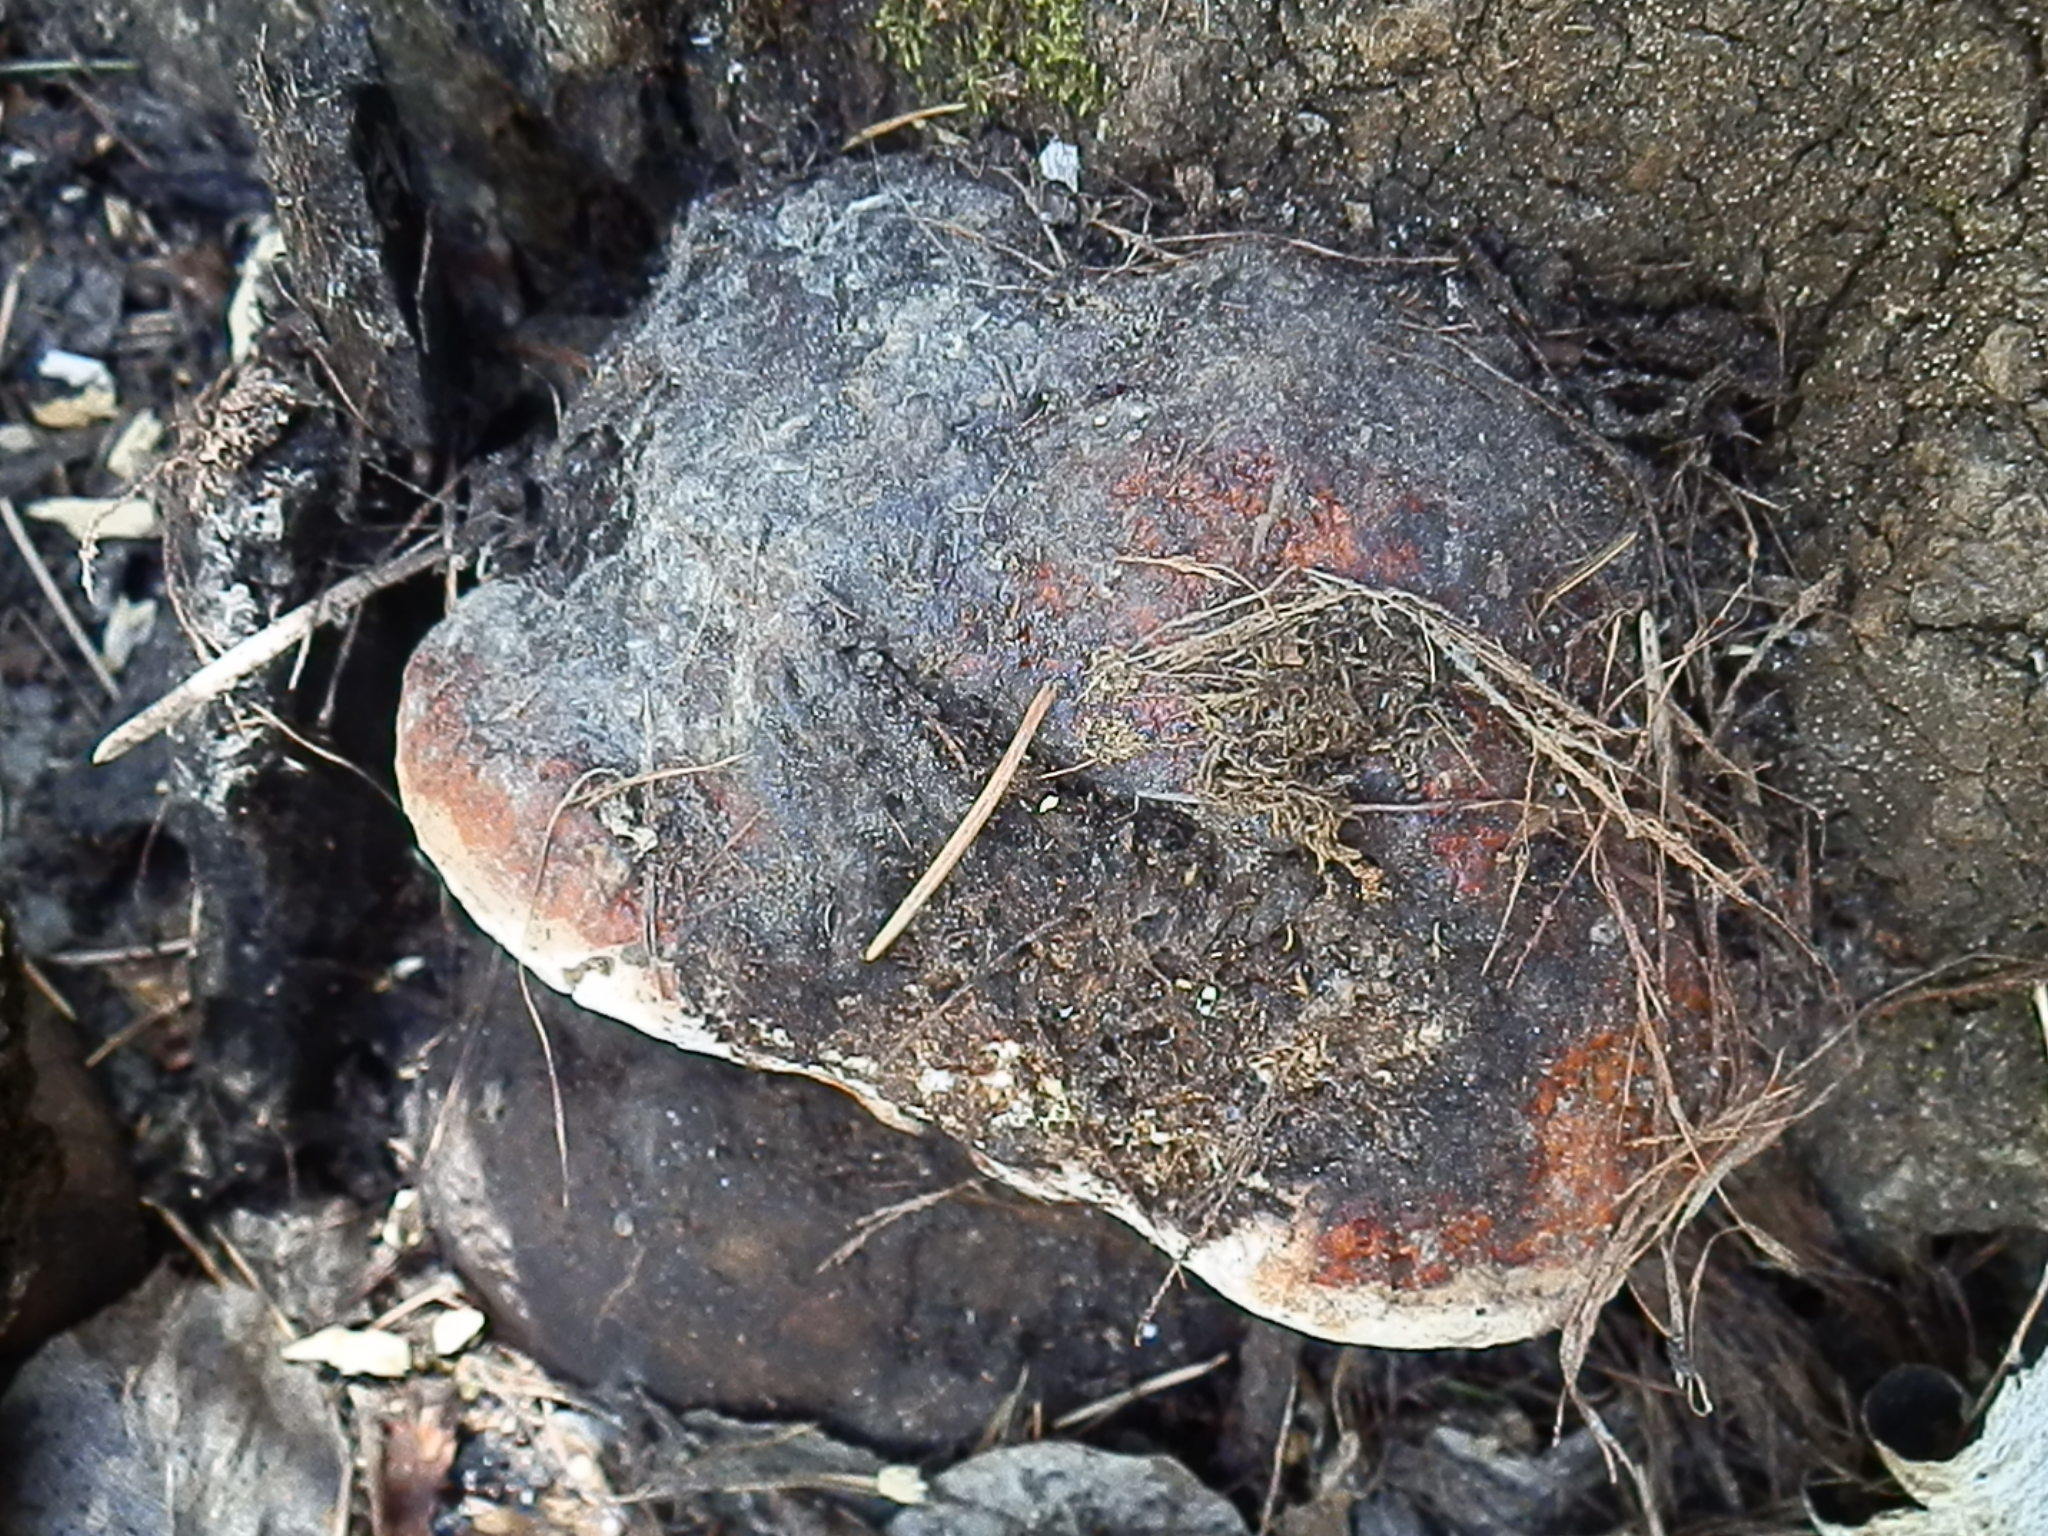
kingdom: Fungi
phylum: Basidiomycota
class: Agaricomycetes
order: Polyporales
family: Fomitopsidaceae
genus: Fomitopsis
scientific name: Fomitopsis schrenkii
